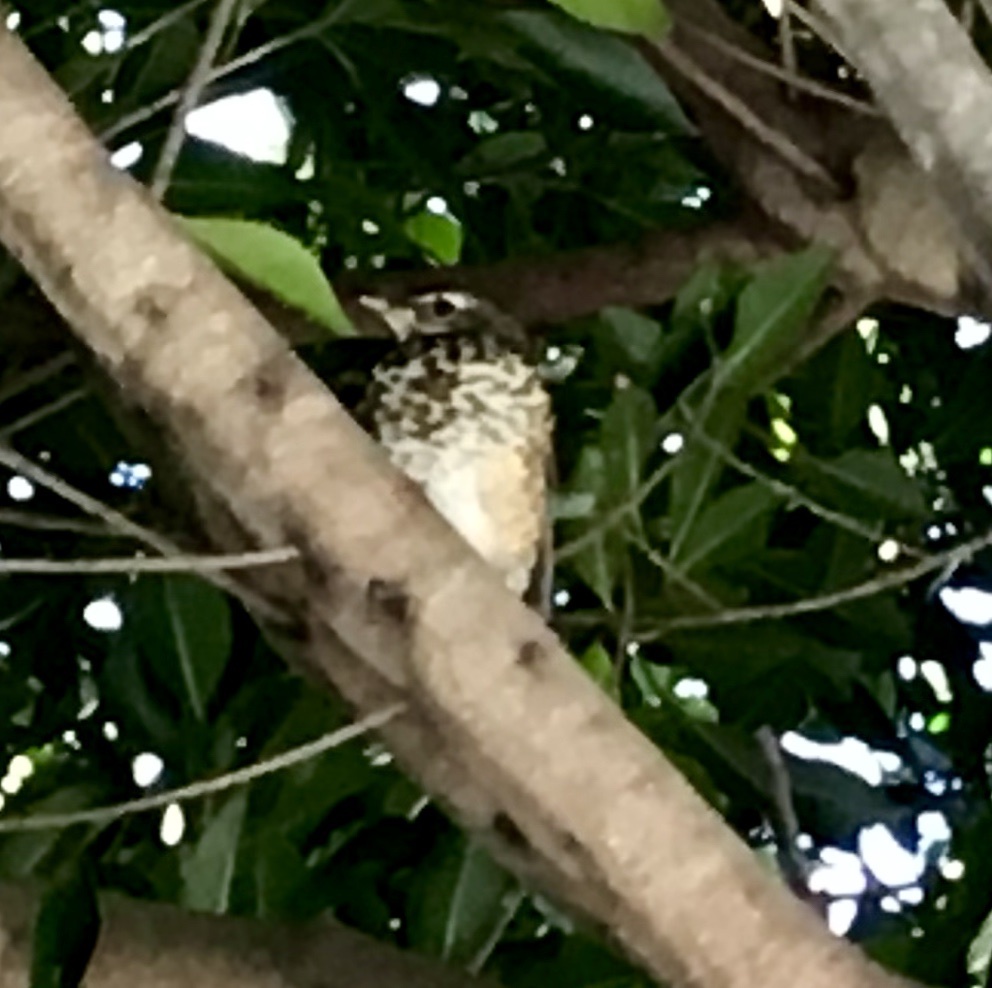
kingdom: Animalia
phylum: Chordata
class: Aves
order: Passeriformes
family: Turdidae
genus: Turdus
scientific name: Turdus migratorius
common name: American robin
